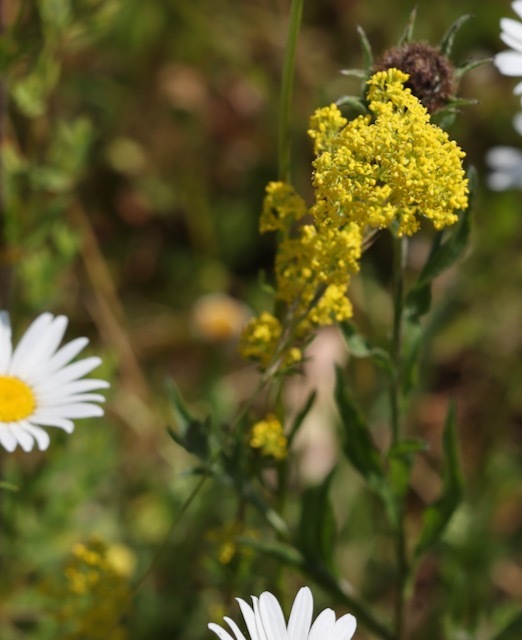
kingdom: Plantae
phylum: Tracheophyta
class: Magnoliopsida
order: Gentianales
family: Rubiaceae
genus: Galium
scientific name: Galium verum
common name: Lady's bedstraw
